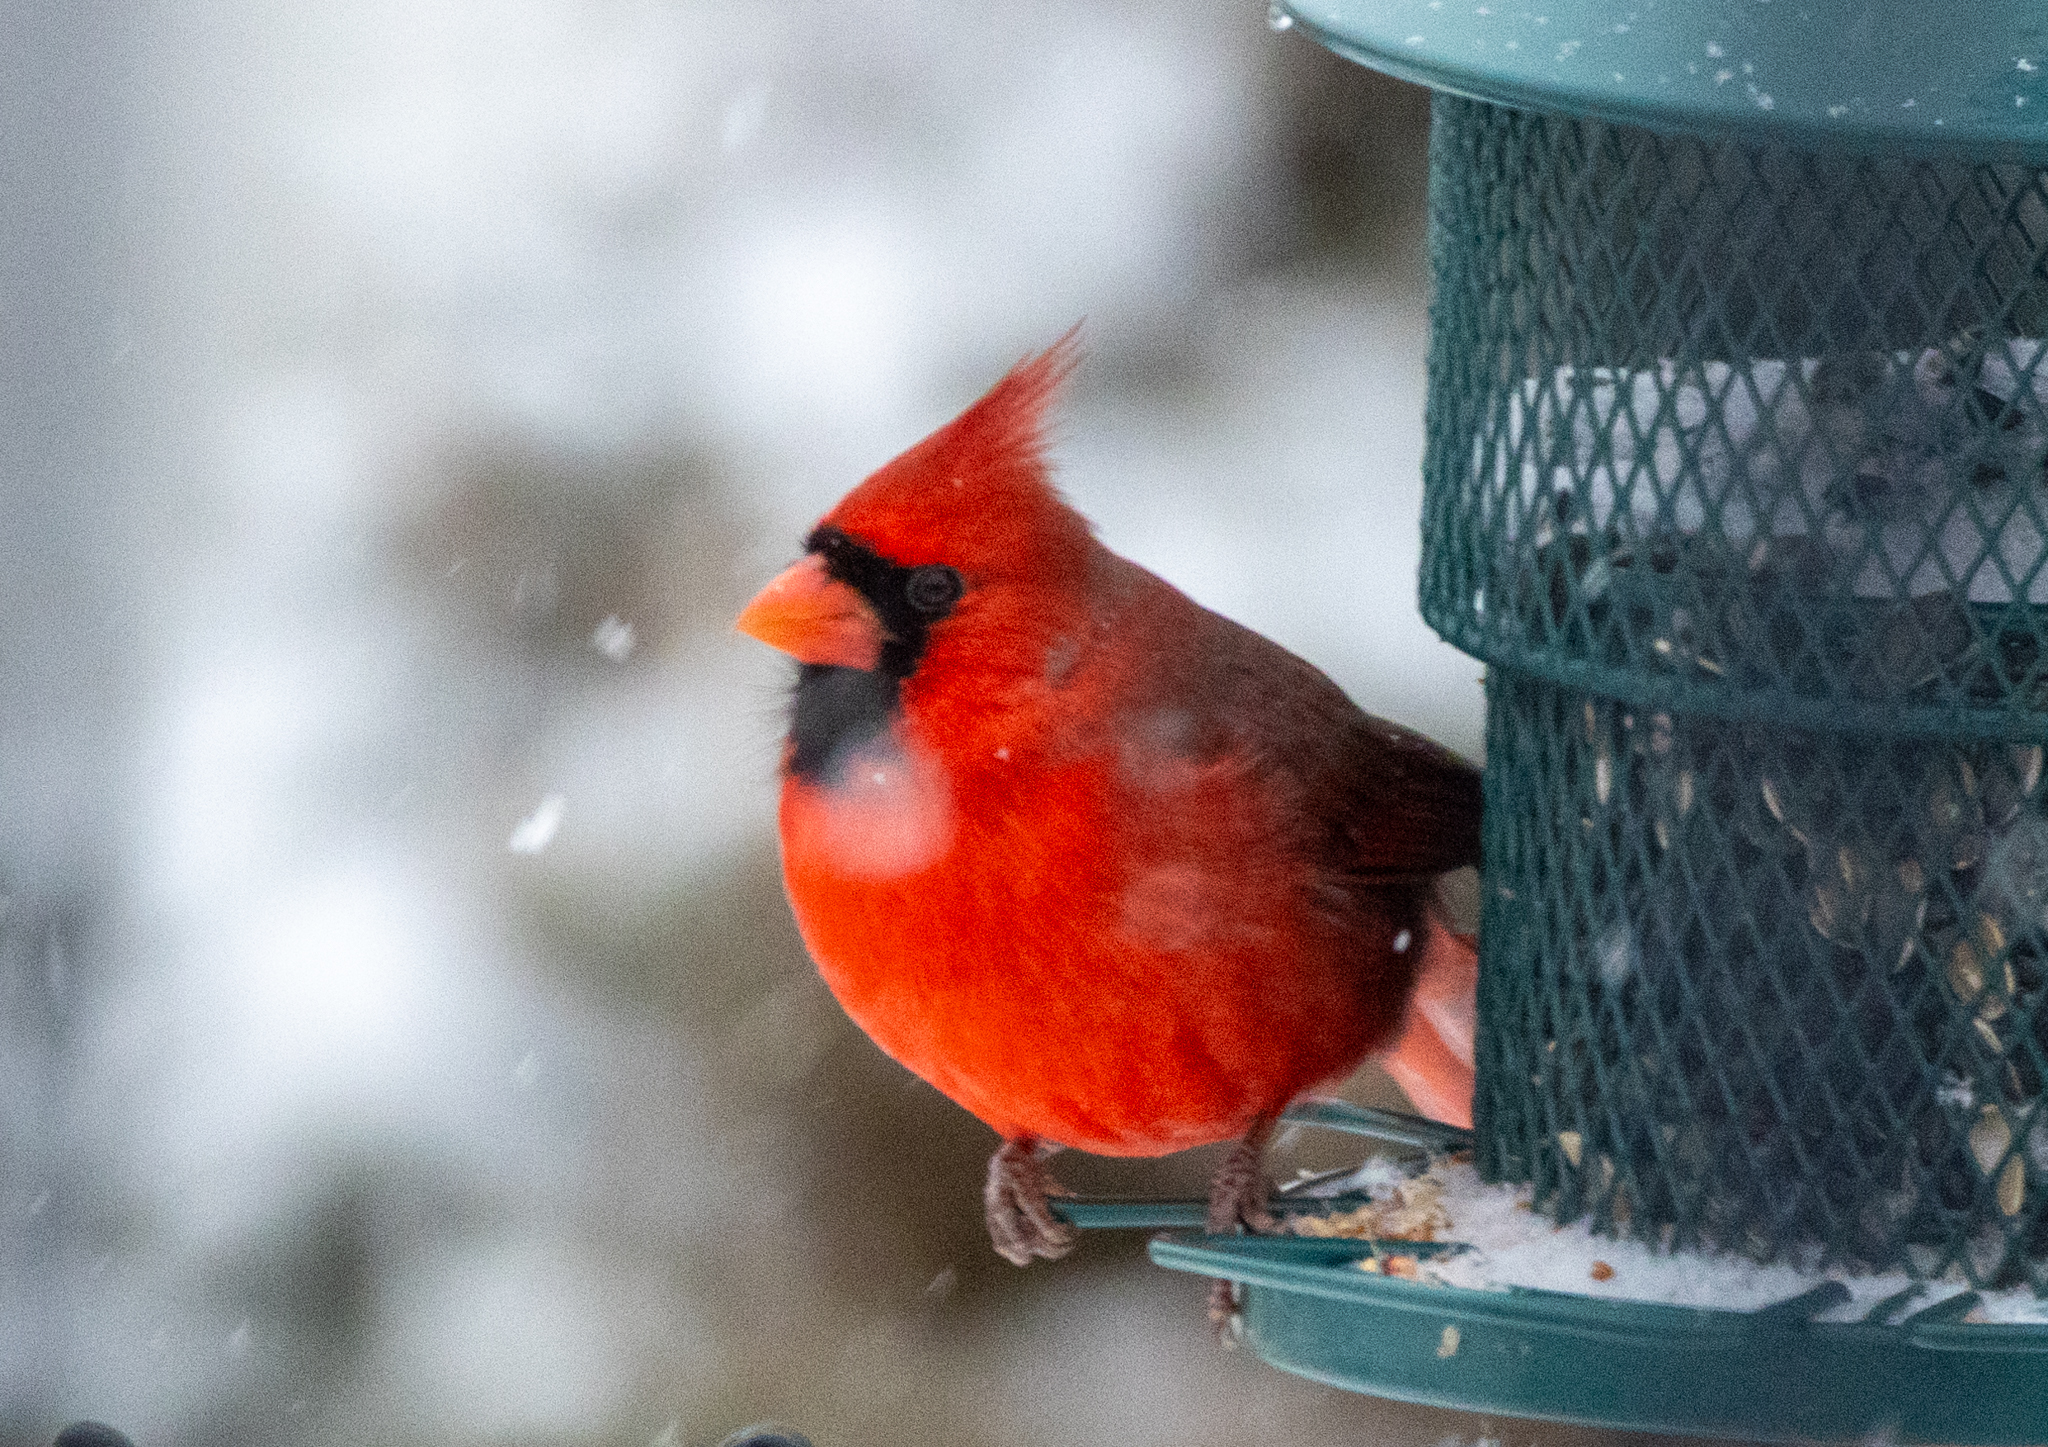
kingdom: Animalia
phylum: Chordata
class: Aves
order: Passeriformes
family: Cardinalidae
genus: Cardinalis
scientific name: Cardinalis cardinalis
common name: Northern cardinal
